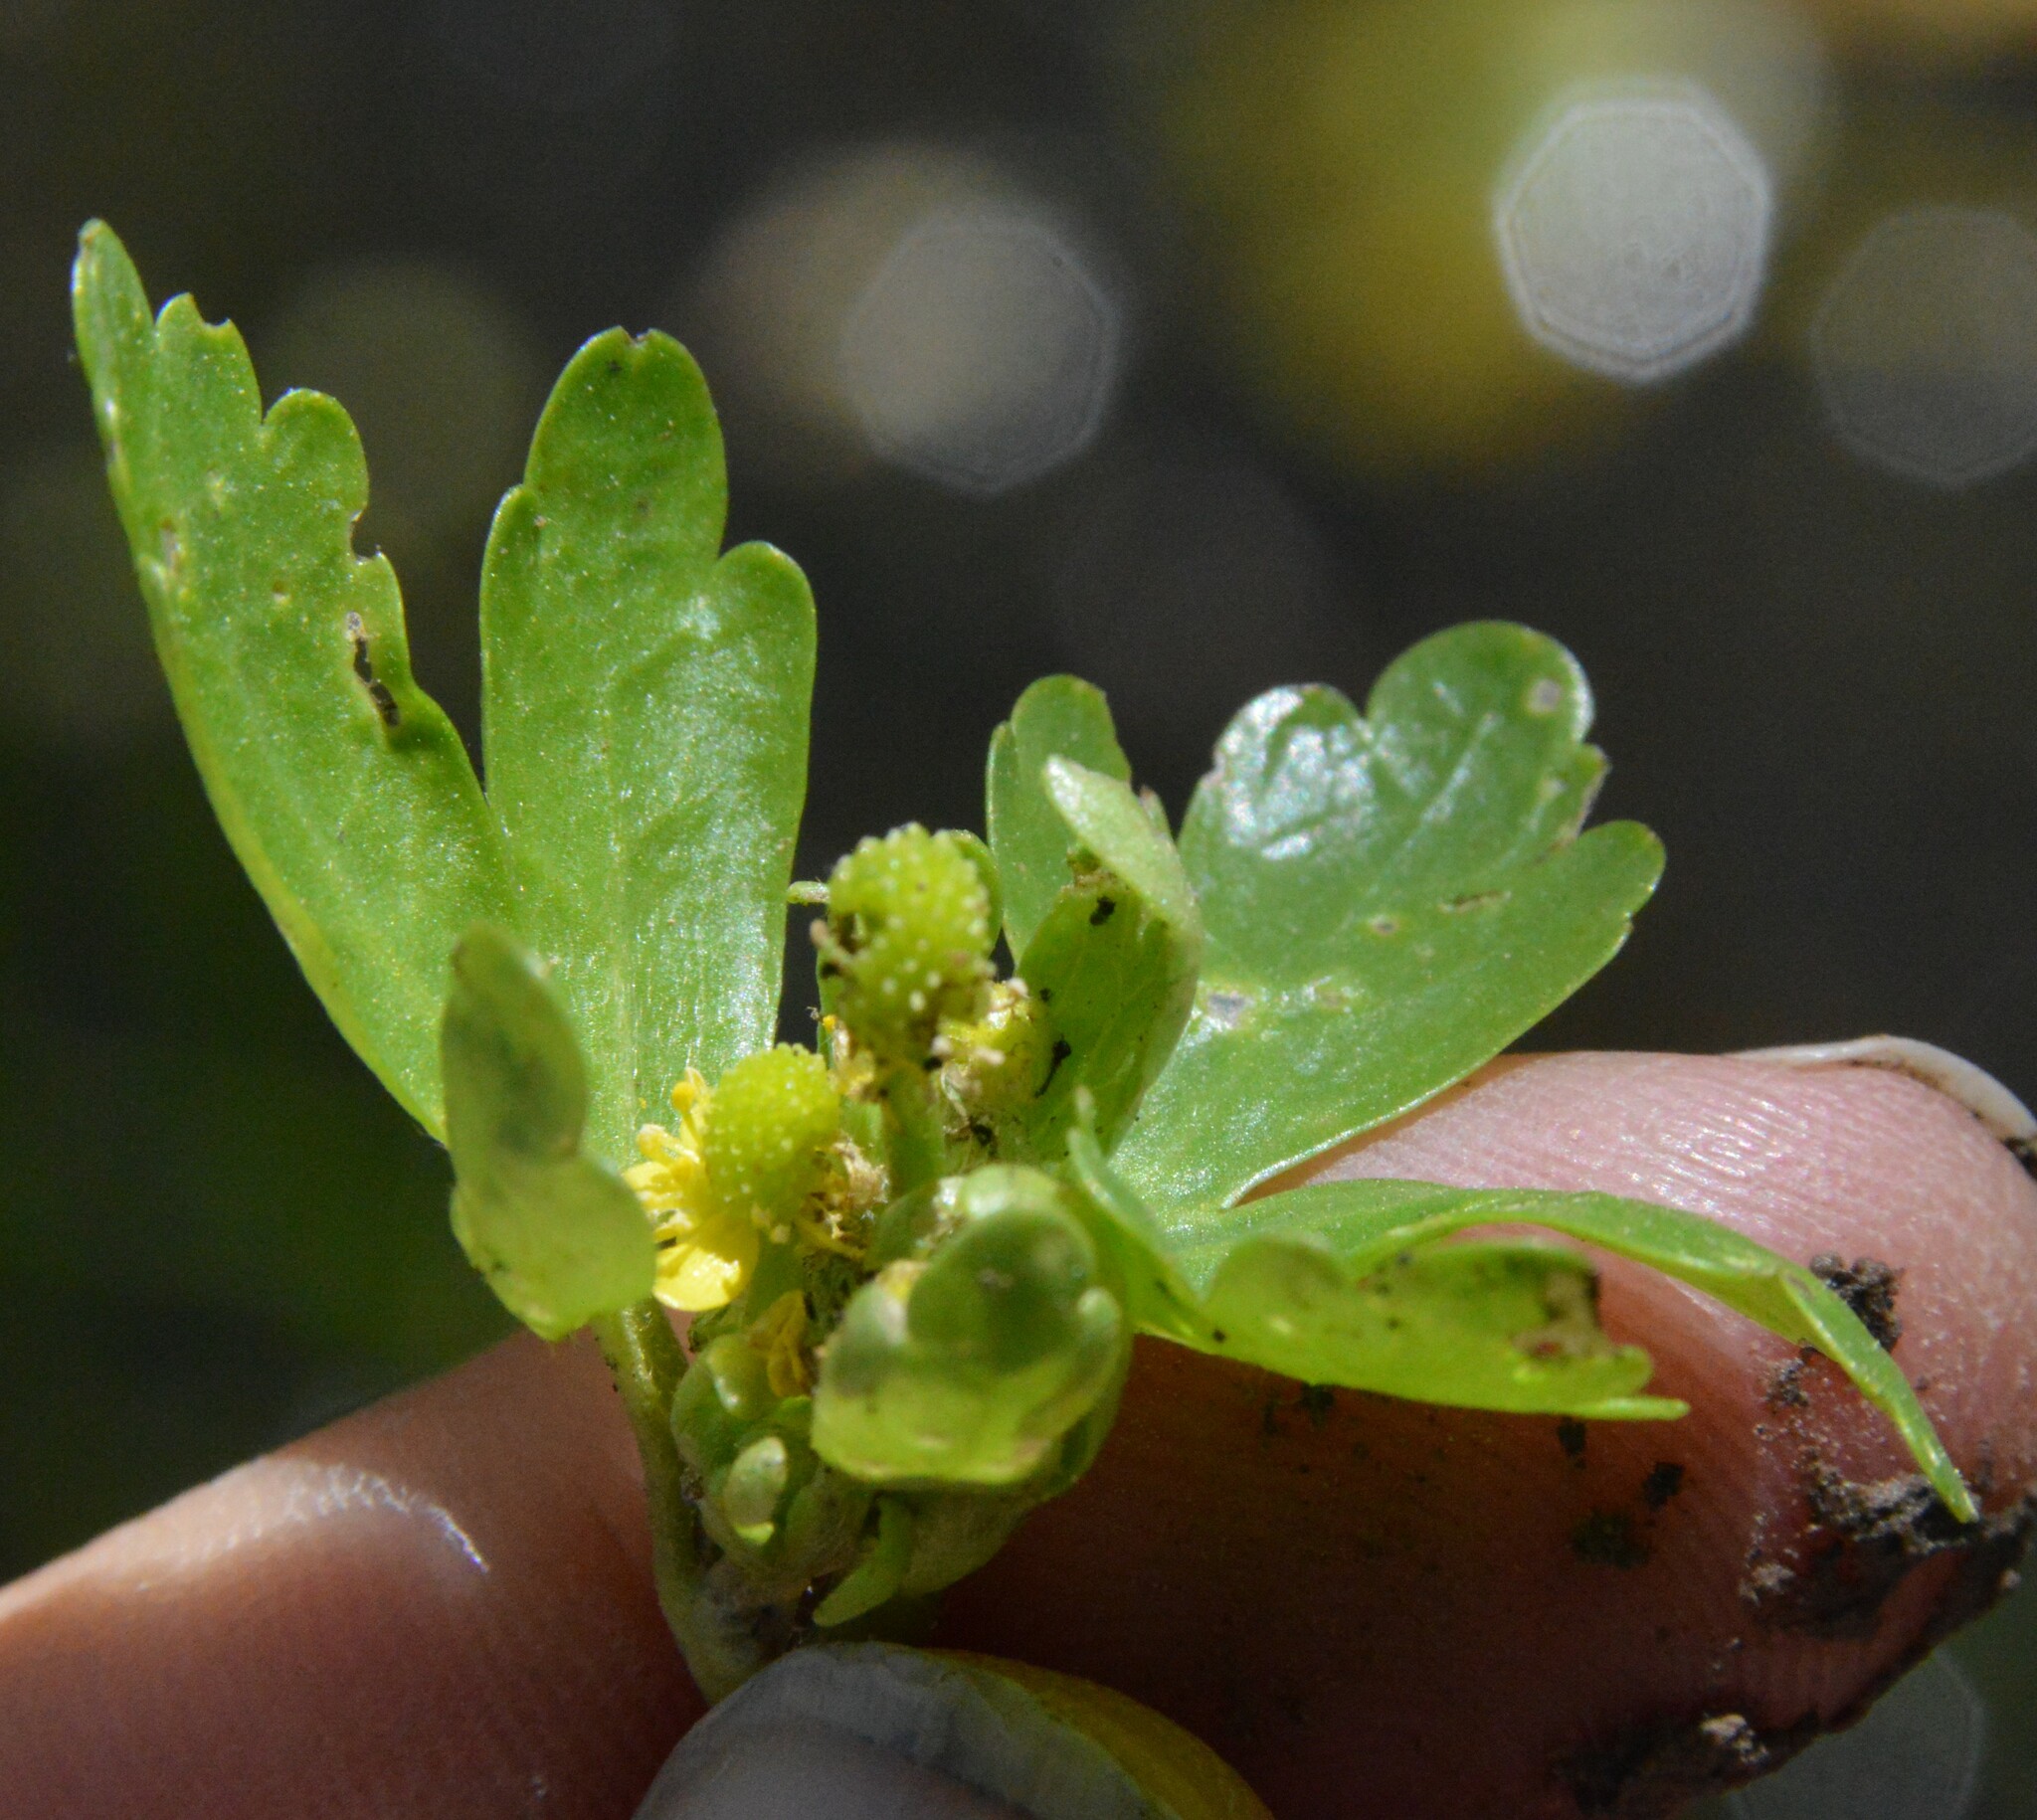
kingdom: Plantae
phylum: Tracheophyta
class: Magnoliopsida
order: Ranunculales
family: Ranunculaceae
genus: Ranunculus
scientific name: Ranunculus sceleratus
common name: Celery-leaved buttercup
